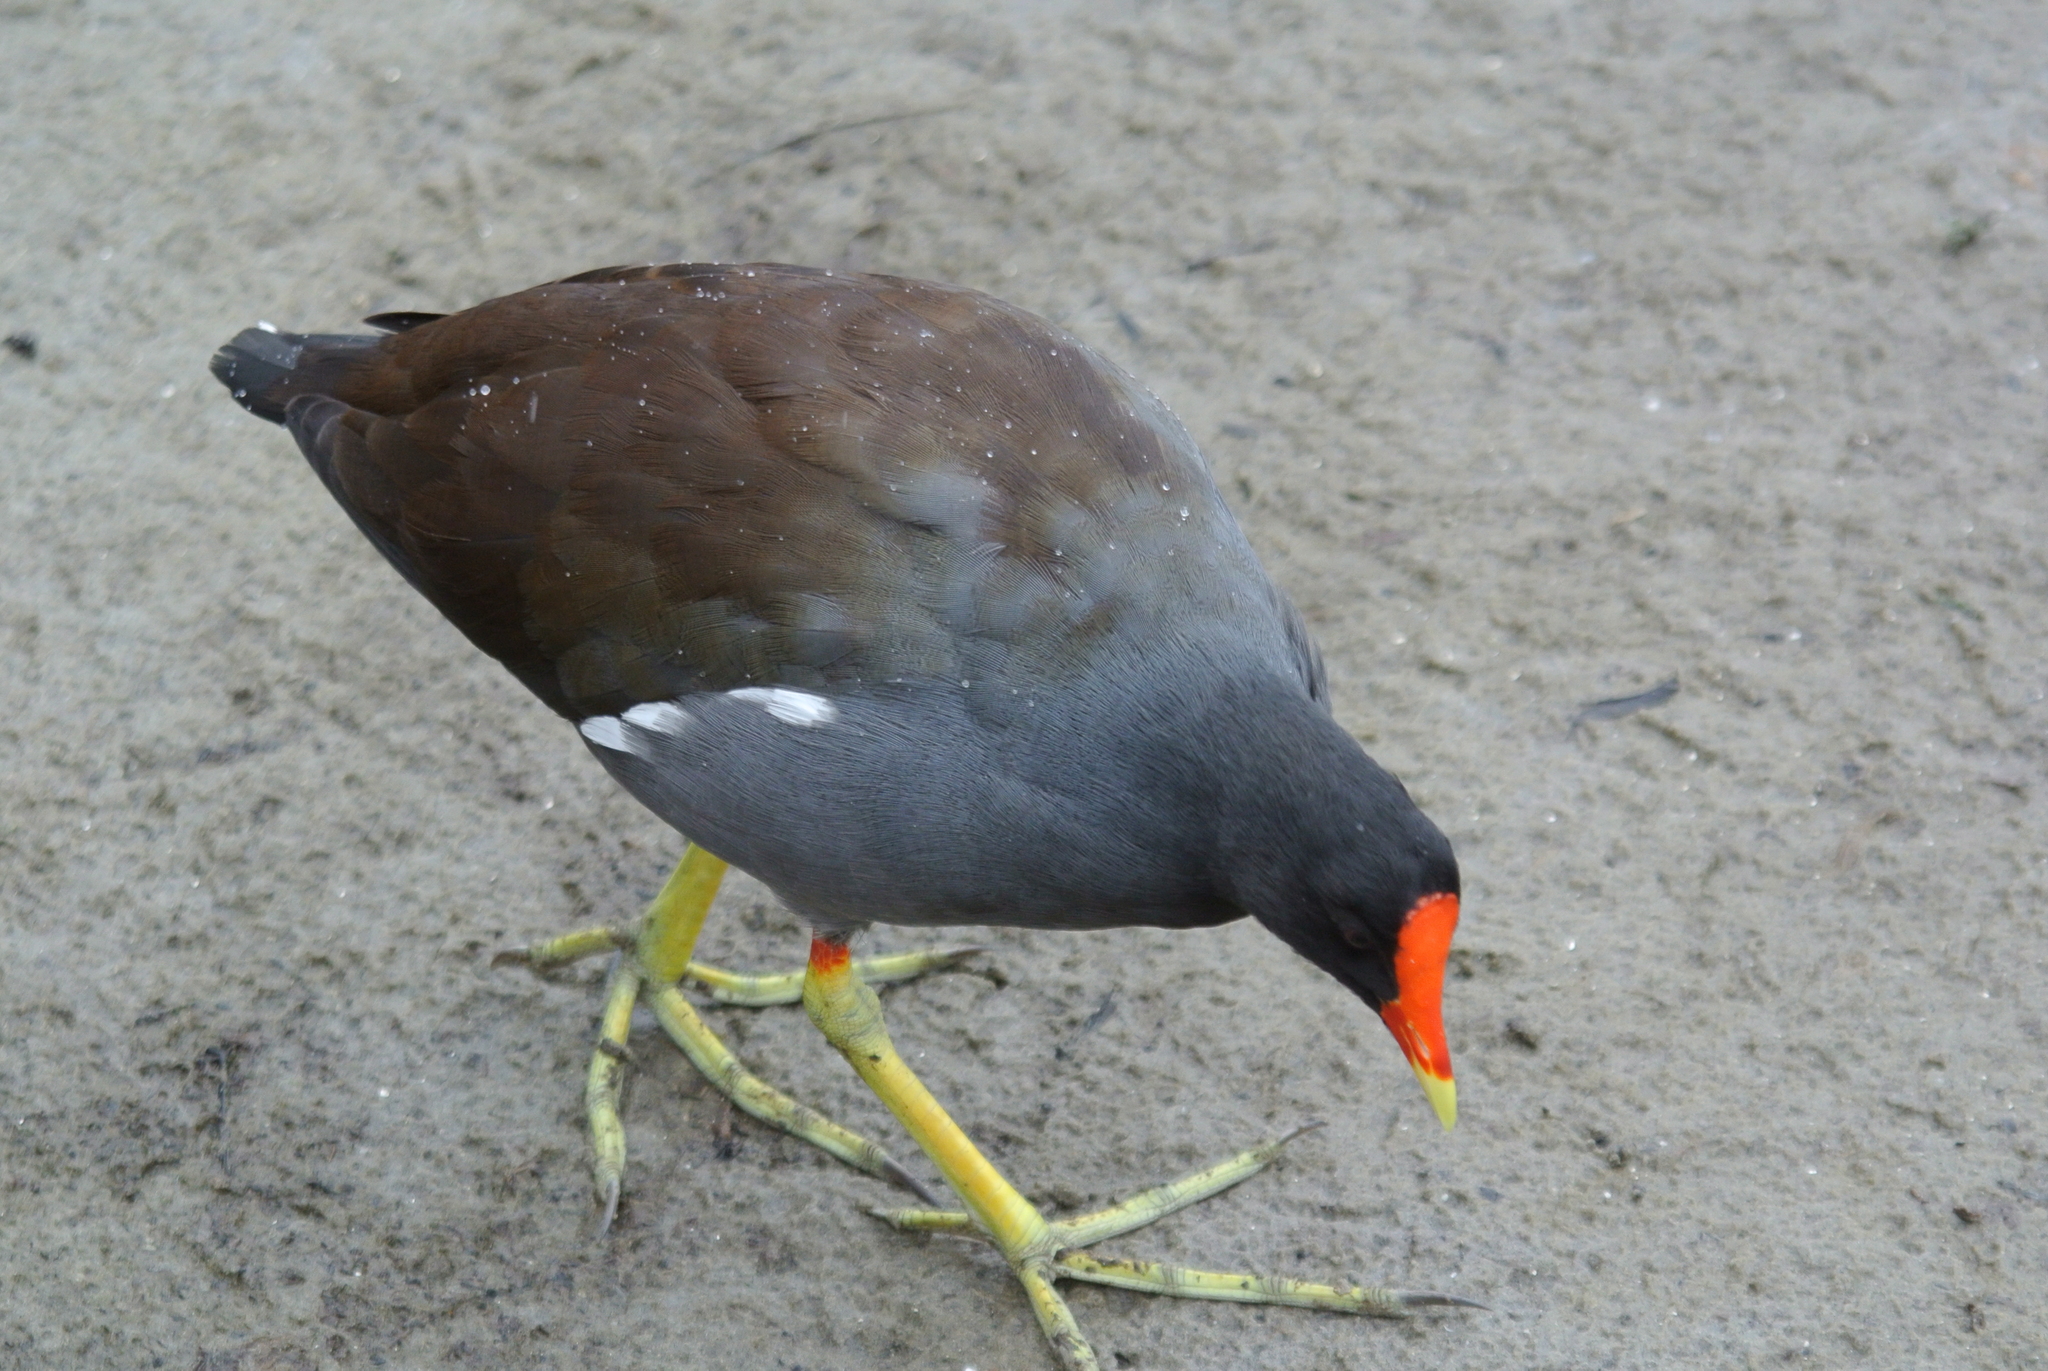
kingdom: Animalia
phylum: Chordata
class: Aves
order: Gruiformes
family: Rallidae
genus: Gallinula
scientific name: Gallinula chloropus
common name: Common moorhen
